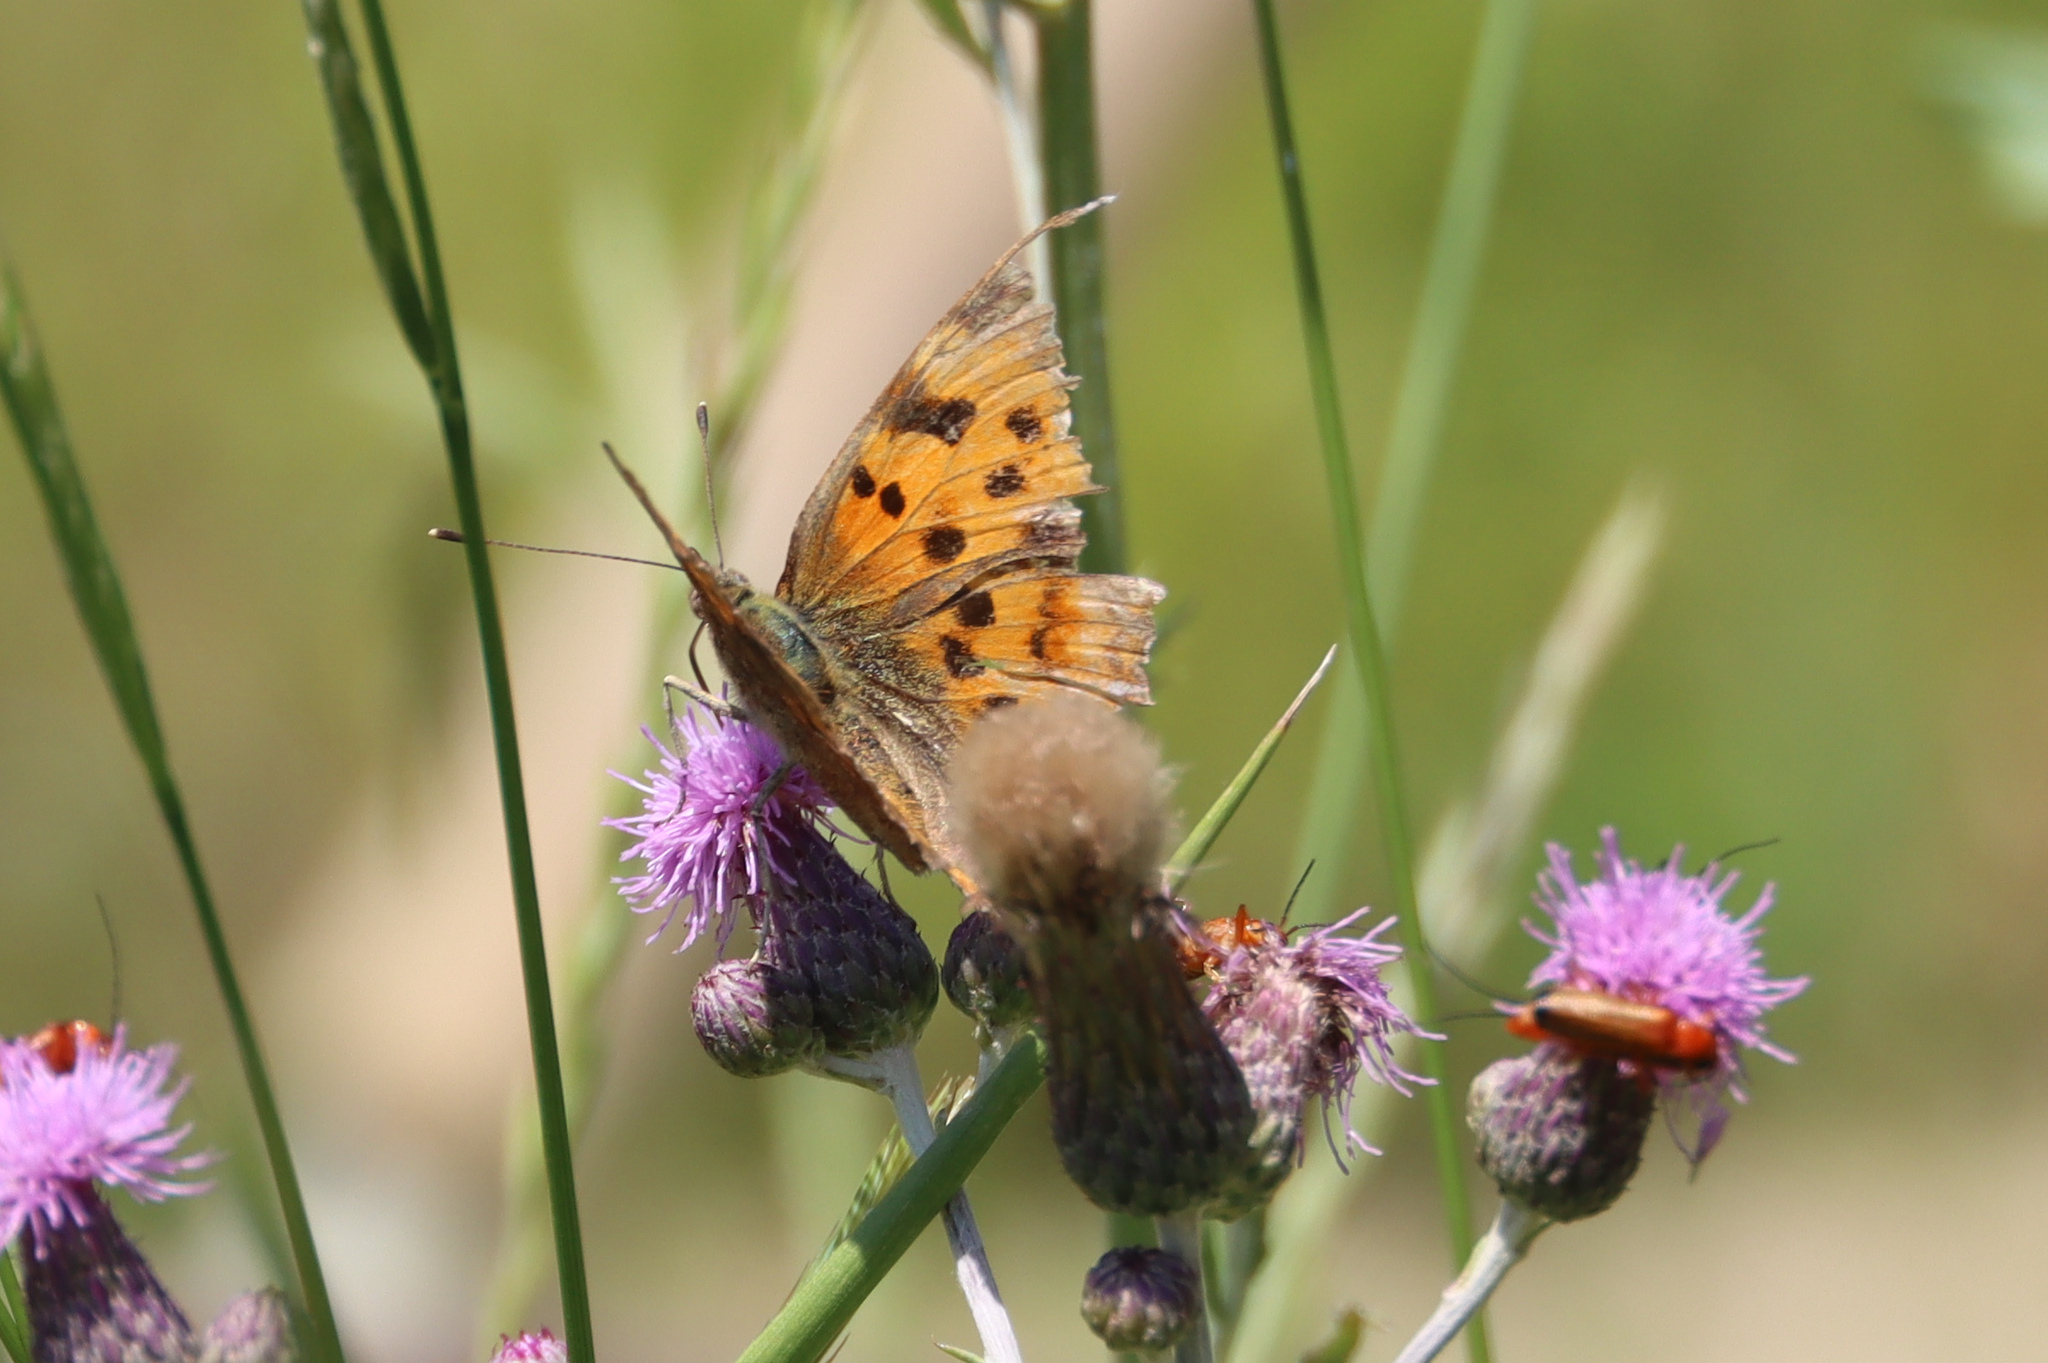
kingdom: Animalia
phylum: Arthropoda
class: Insecta
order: Lepidoptera
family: Nymphalidae
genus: Polygonia
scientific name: Polygonia c-album
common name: Comma
